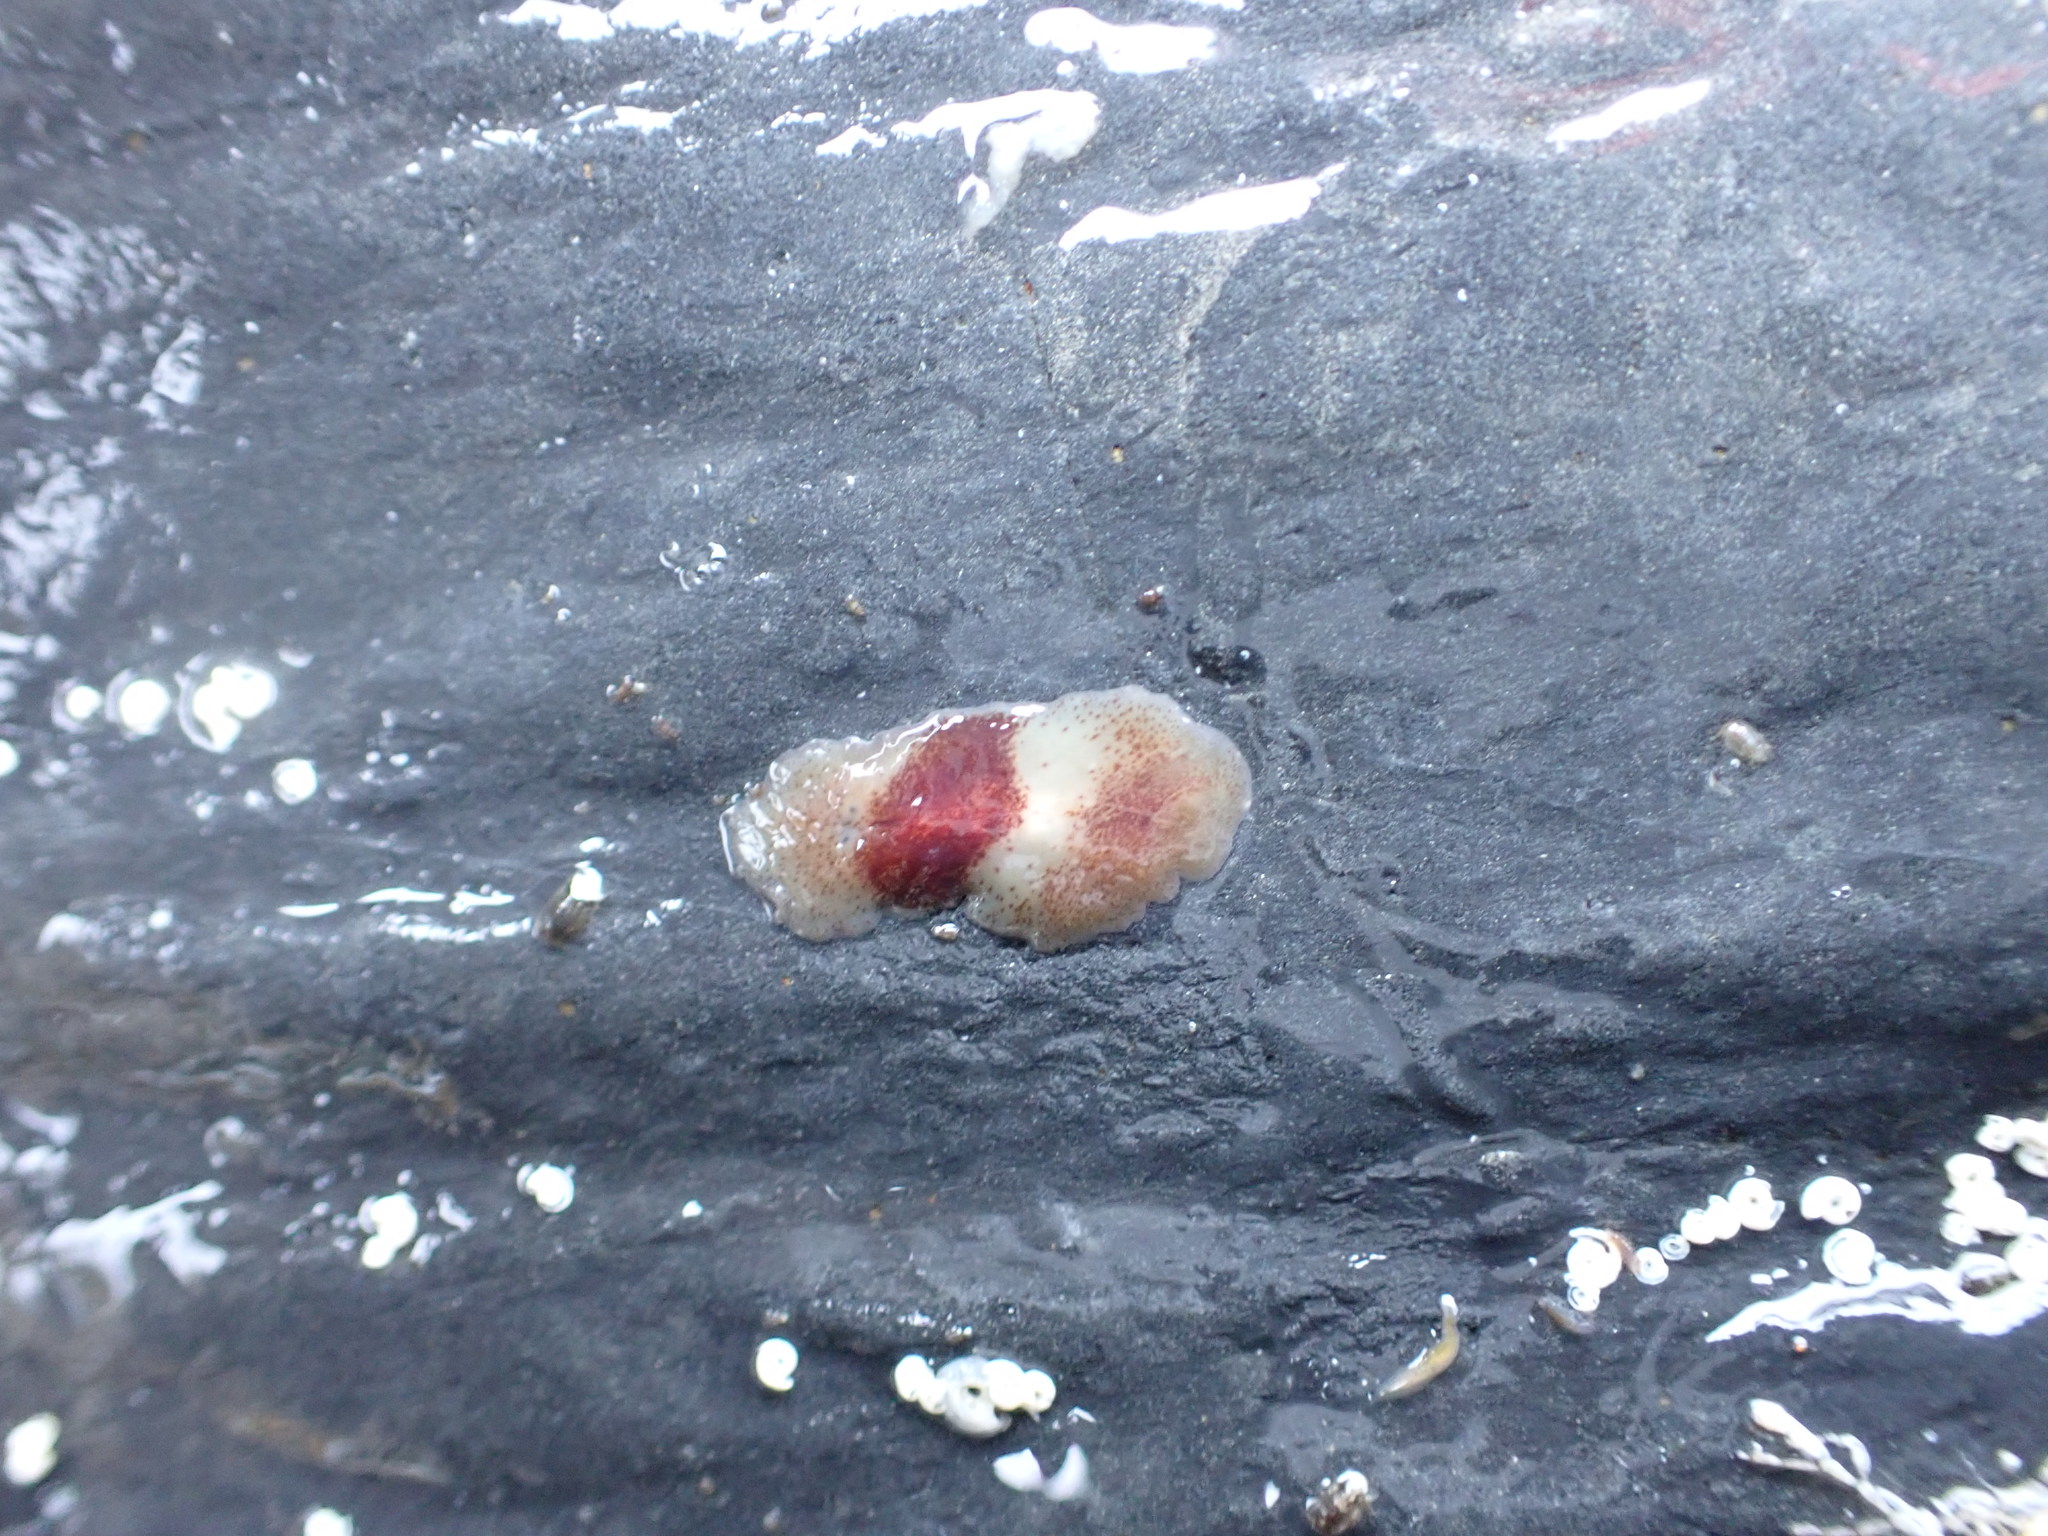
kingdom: Animalia
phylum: Platyhelminthes
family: Notocomplanidae
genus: Notocomplana
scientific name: Notocomplana sanguinea
